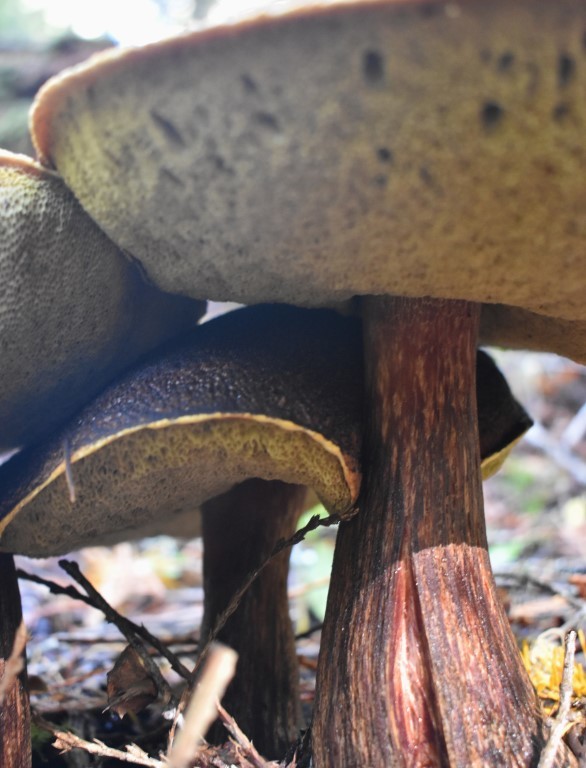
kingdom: Fungi
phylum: Basidiomycota
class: Agaricomycetes
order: Boletales
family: Boletaceae
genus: Aureoboletus
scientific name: Aureoboletus mirabilis
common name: Admirable bolete
